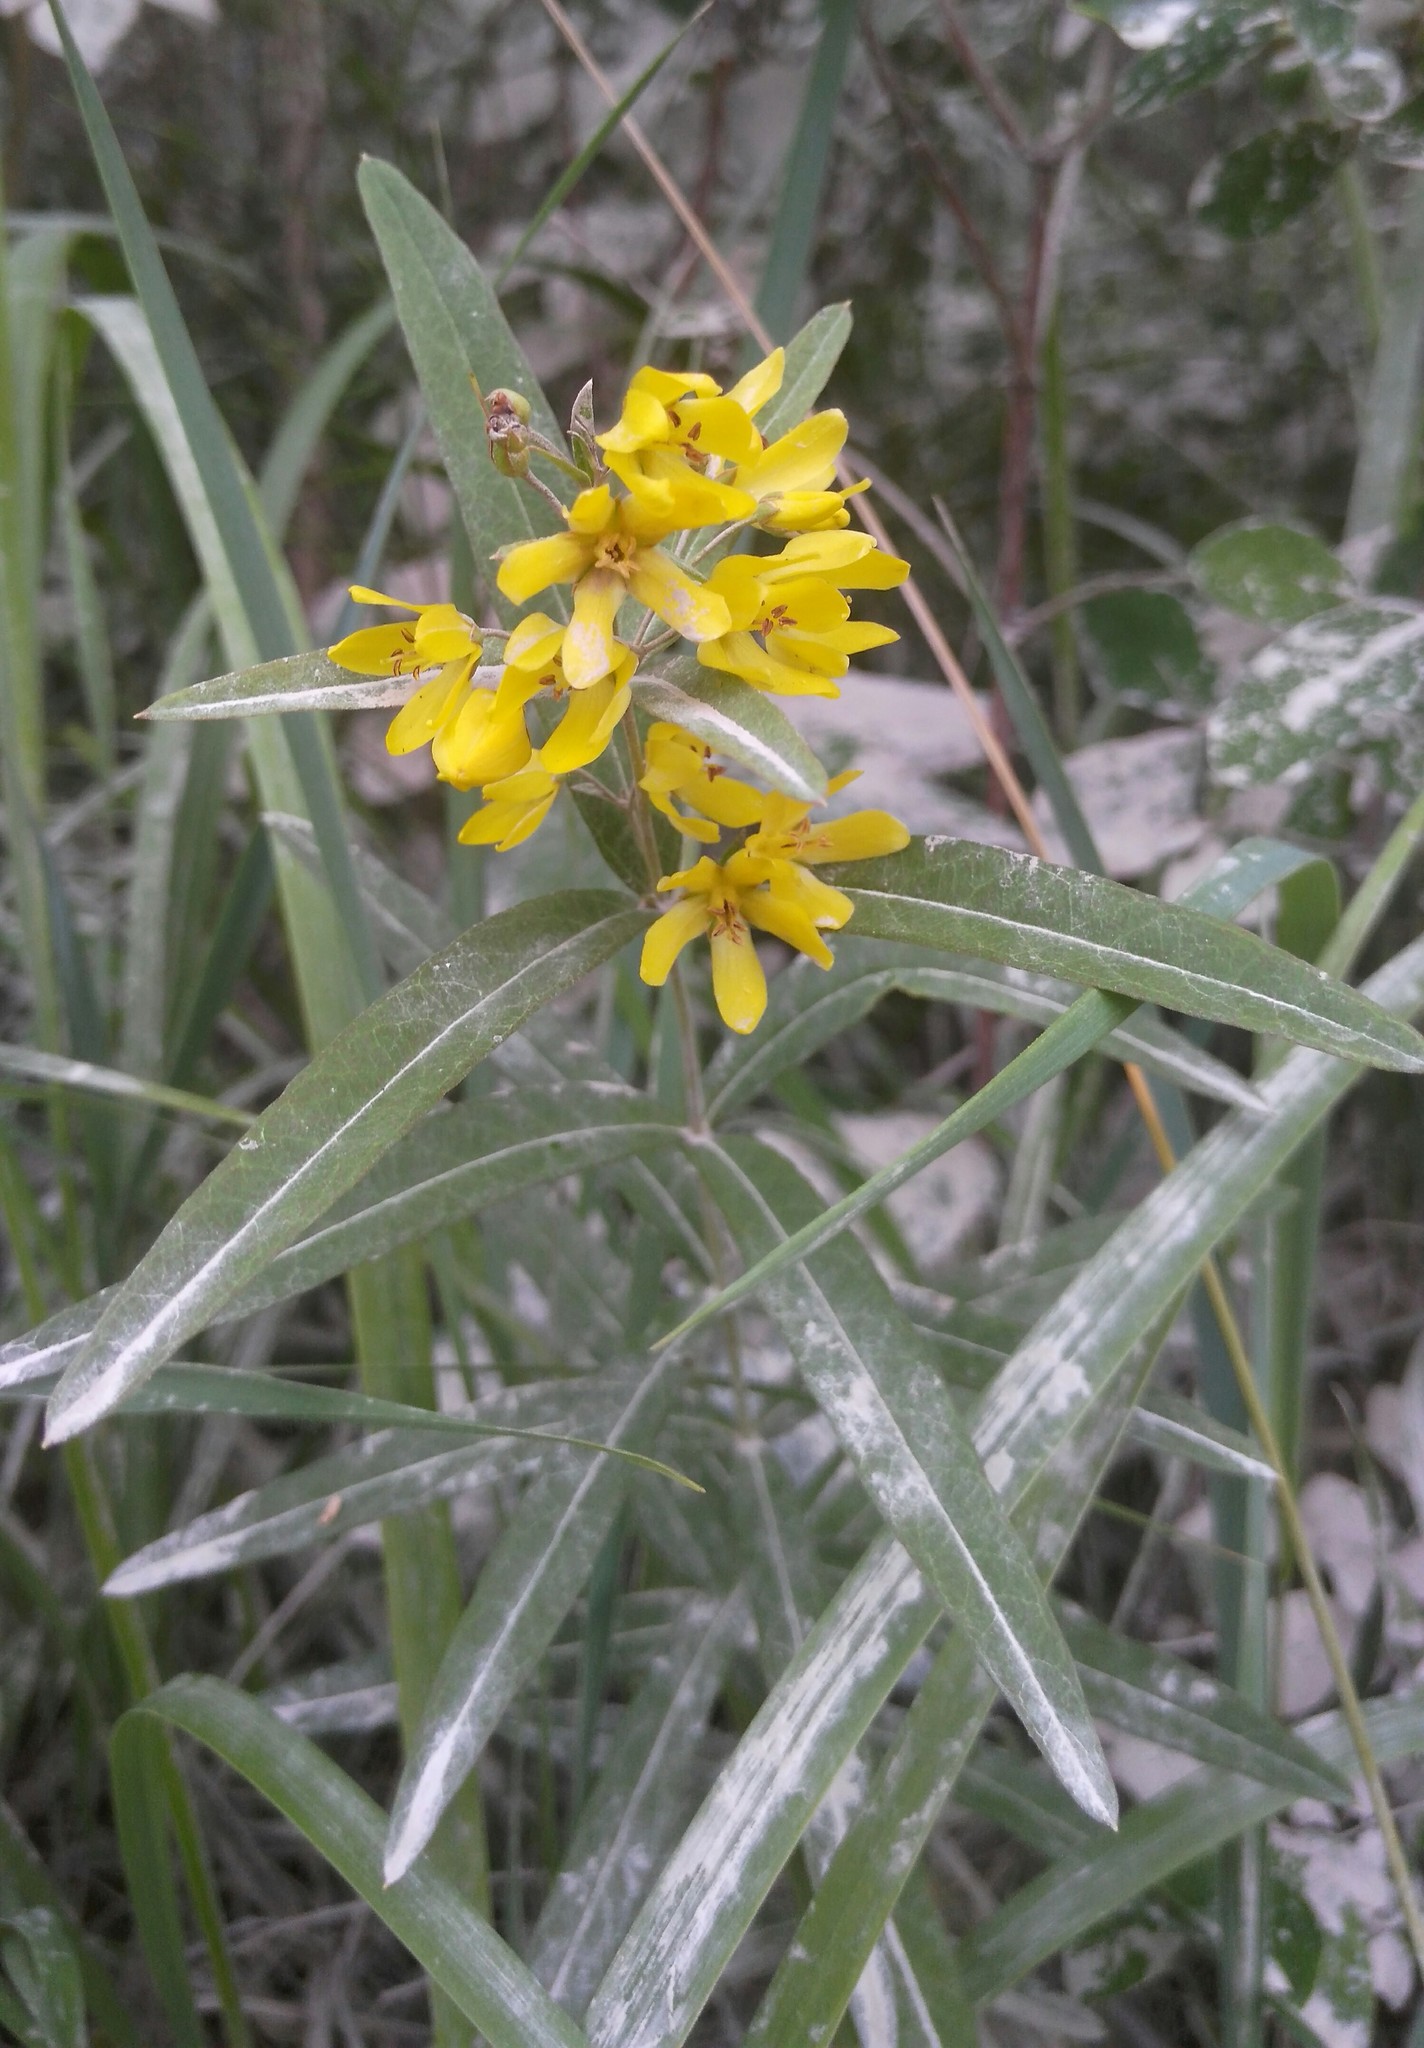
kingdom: Plantae
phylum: Tracheophyta
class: Magnoliopsida
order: Ericales
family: Primulaceae
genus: Lysimachia
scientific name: Lysimachia davurica
